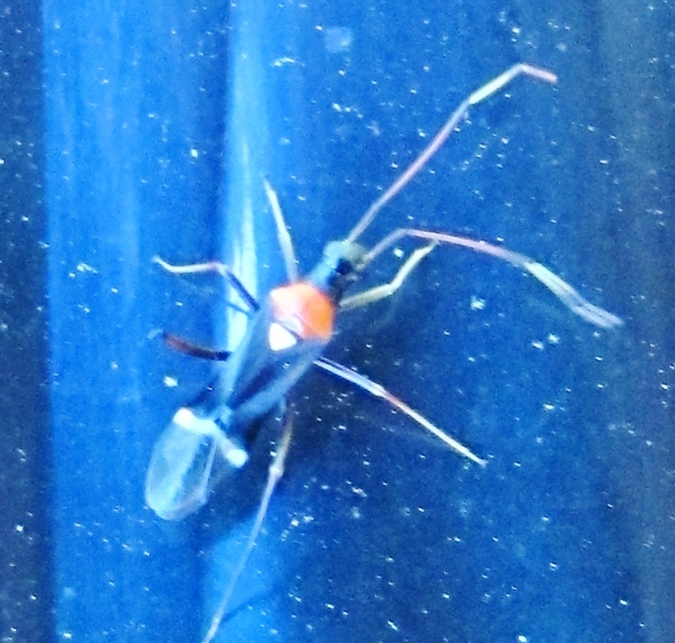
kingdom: Animalia
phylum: Arthropoda
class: Insecta
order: Hemiptera
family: Miridae
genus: Pseudoxenetus
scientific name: Pseudoxenetus regalis
